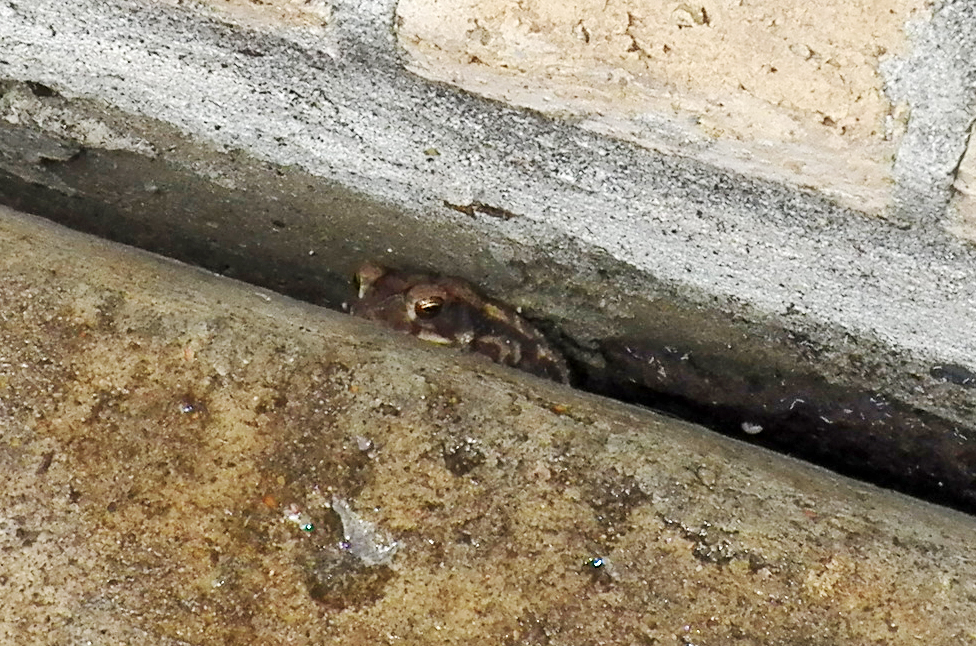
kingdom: Animalia
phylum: Chordata
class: Amphibia
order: Anura
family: Bufonidae
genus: Incilius
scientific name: Incilius nebulifer
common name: Gulf coast toad
